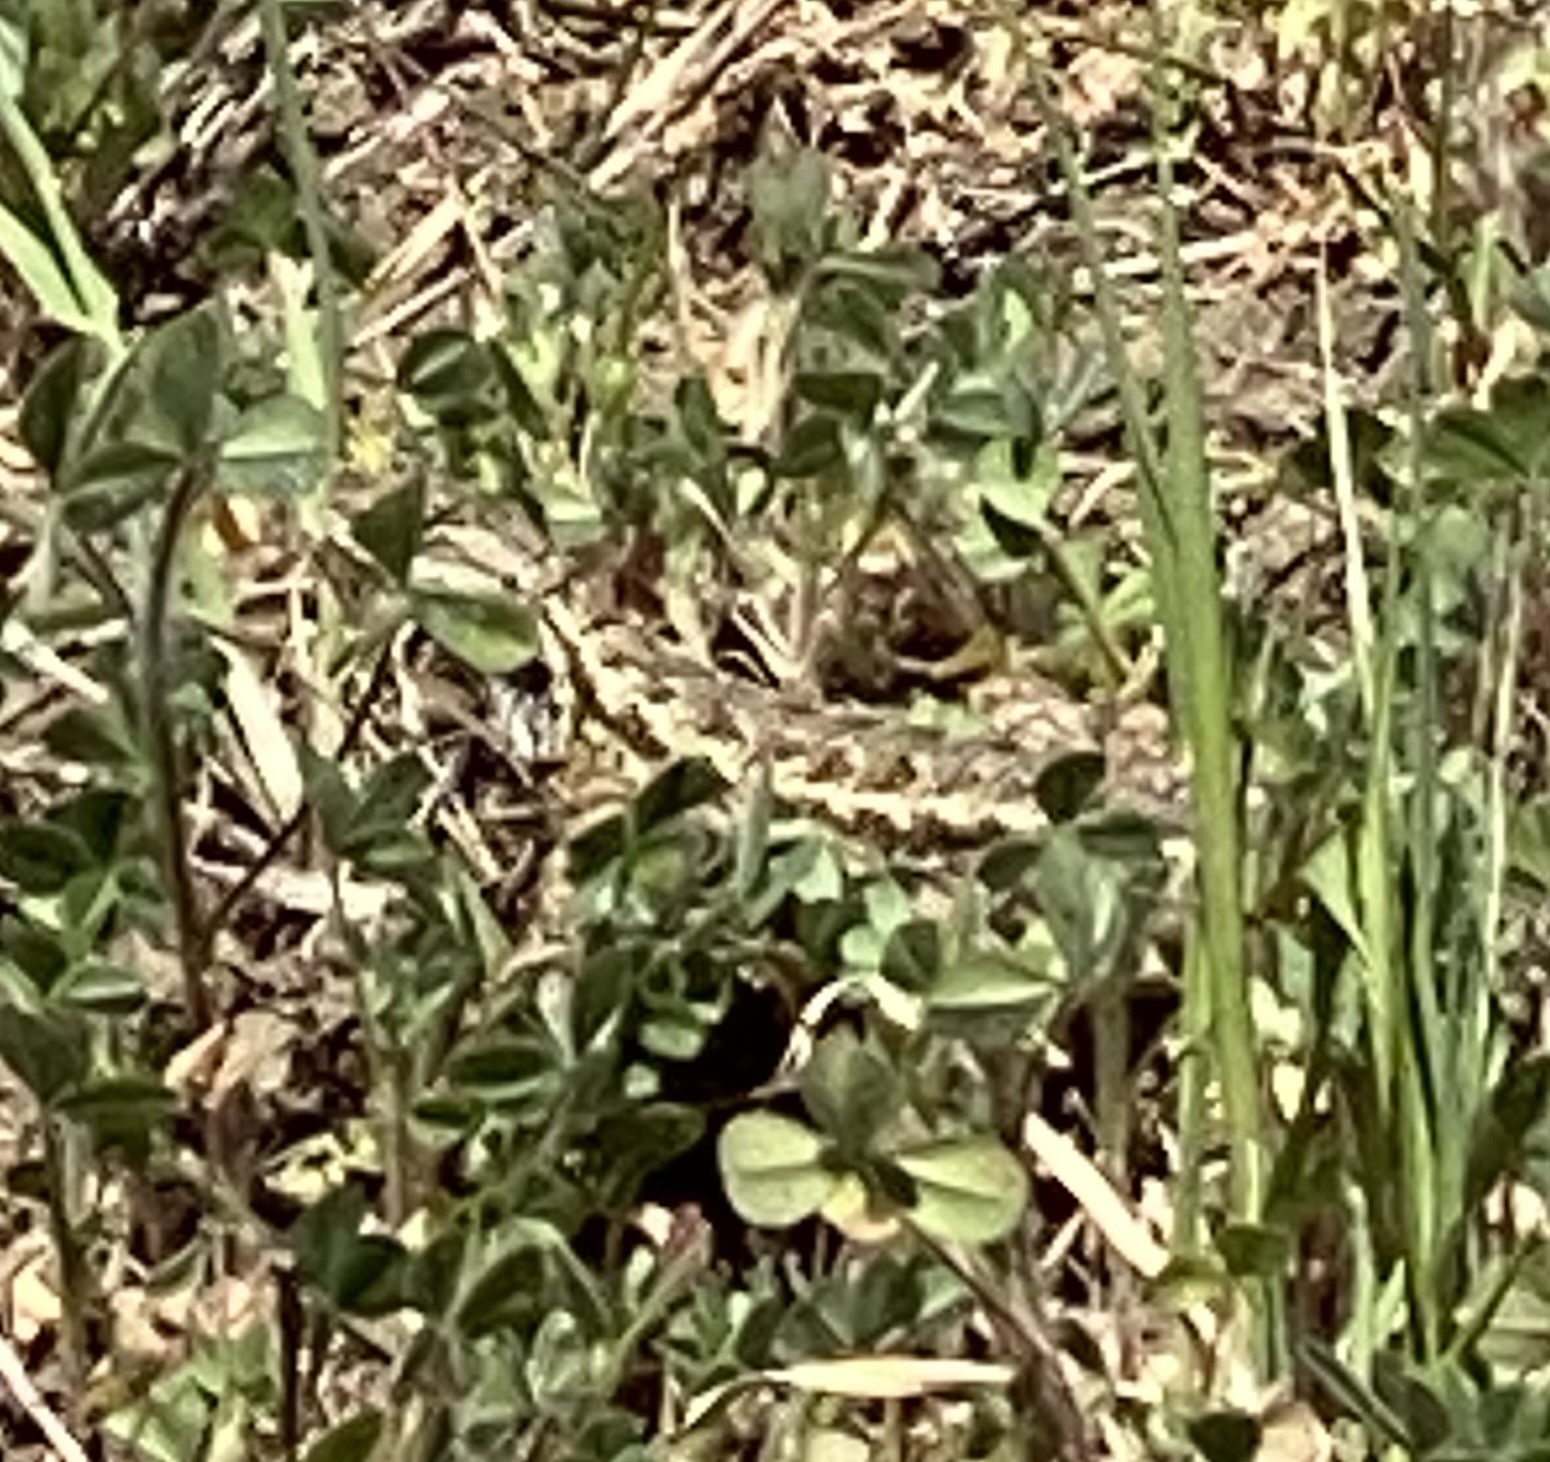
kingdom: Animalia
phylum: Chordata
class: Squamata
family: Phrynosomatidae
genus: Sceloporus
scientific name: Sceloporus occidentalis
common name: Western fence lizard
